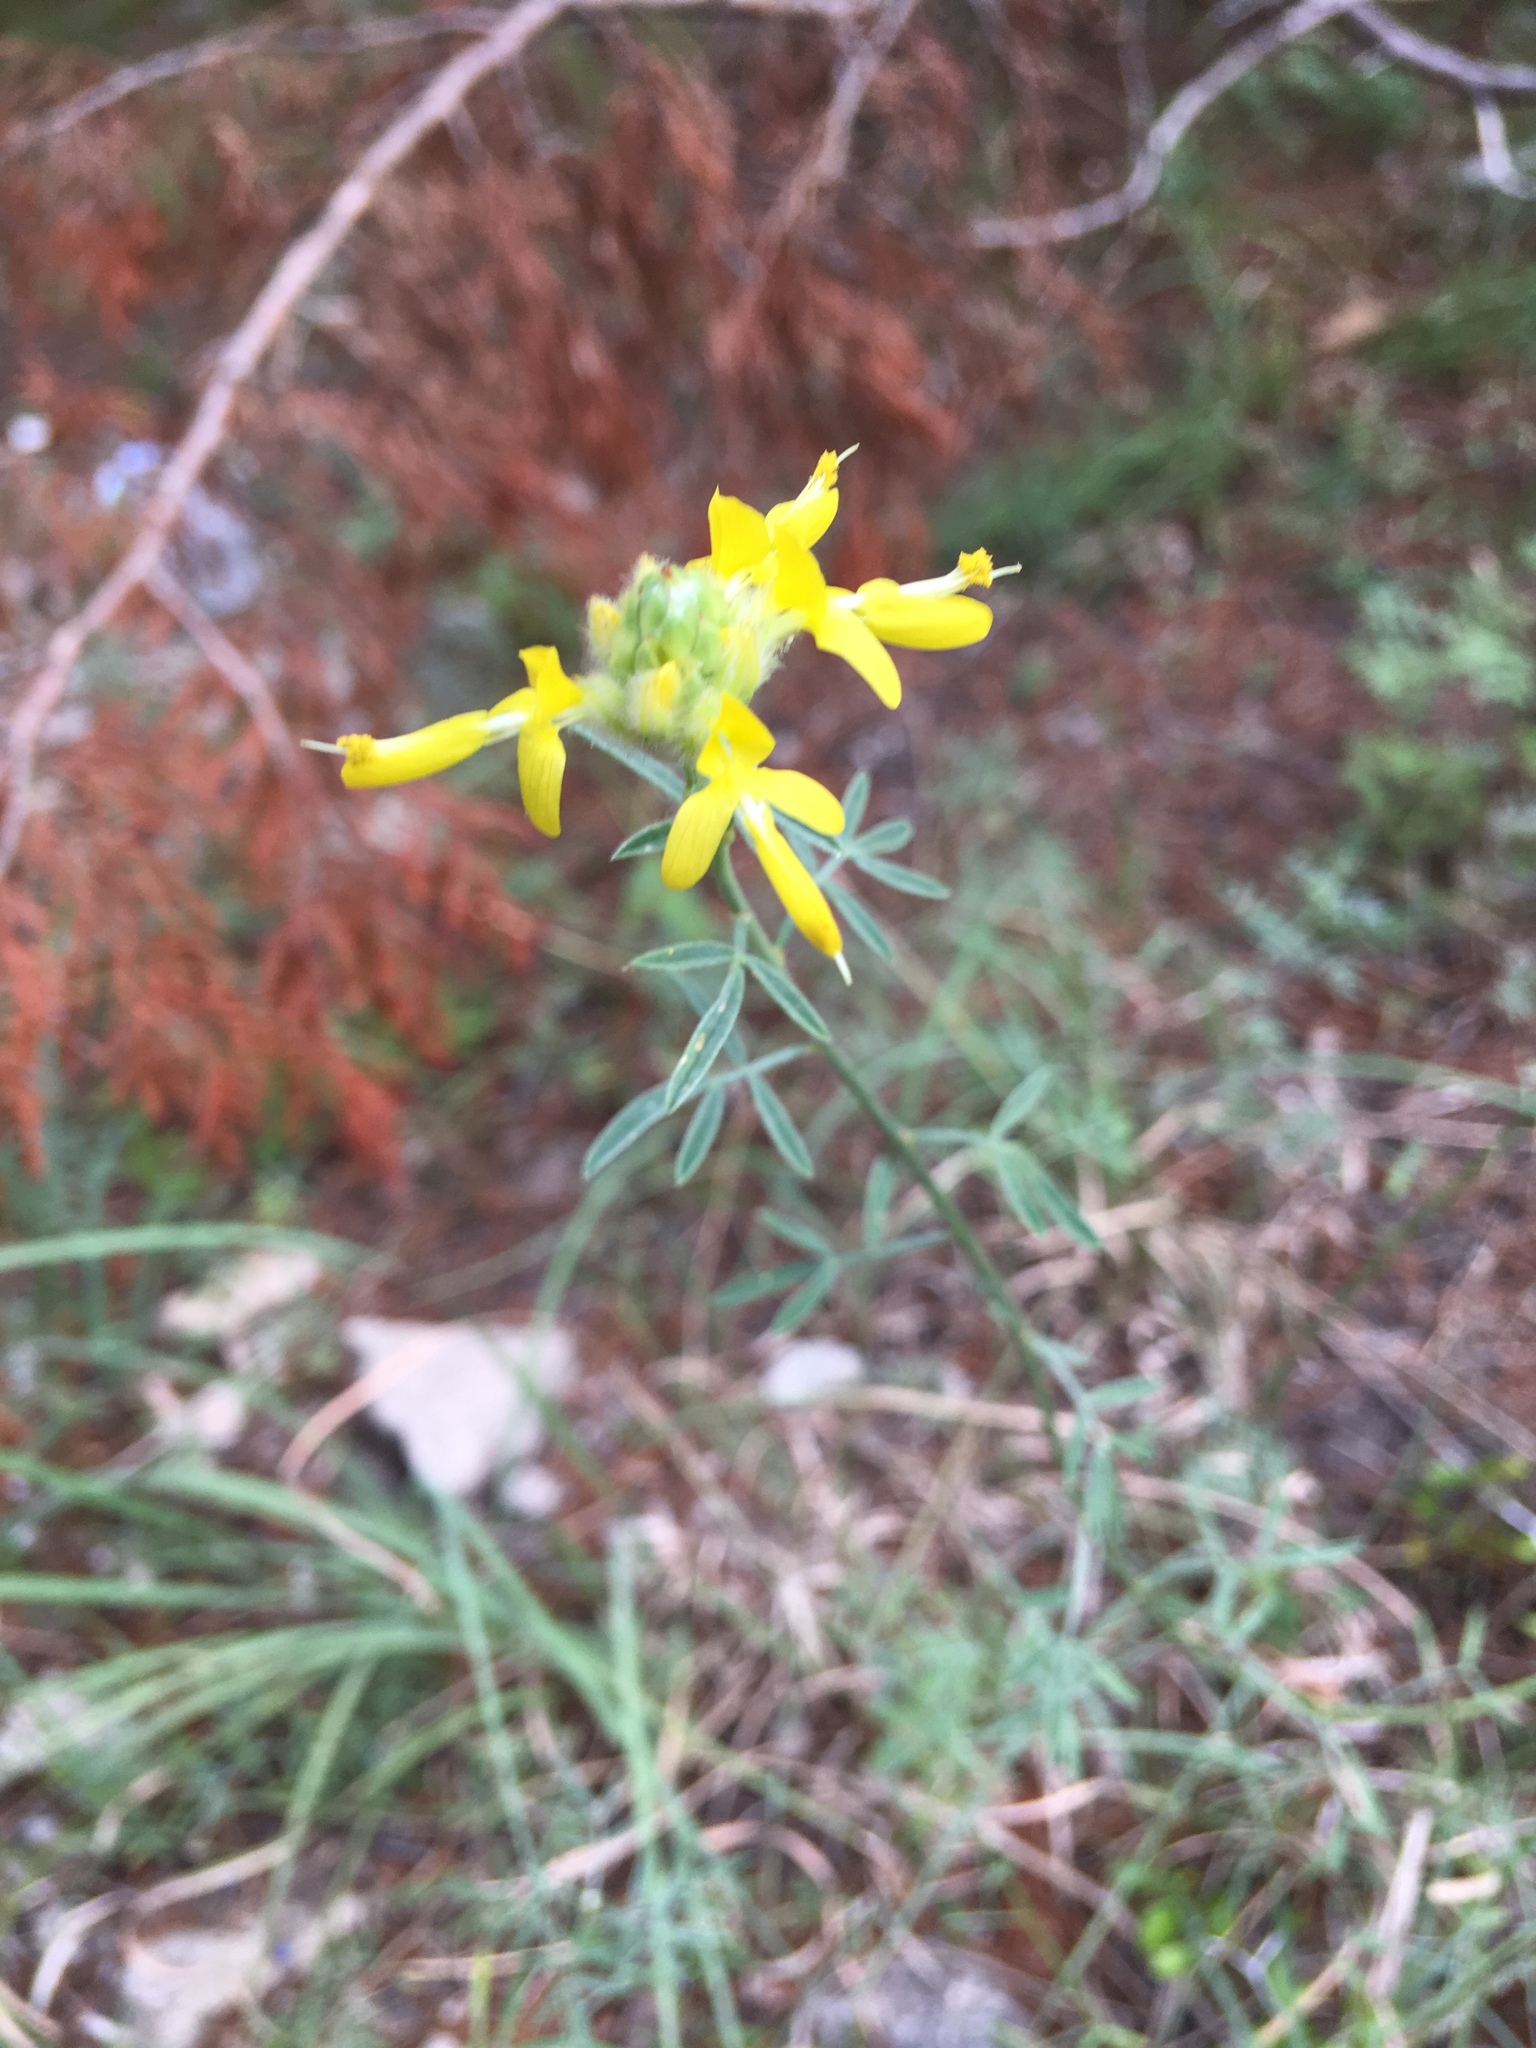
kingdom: Plantae
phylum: Tracheophyta
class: Magnoliopsida
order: Fabales
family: Fabaceae
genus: Dalea
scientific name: Dalea aurea
